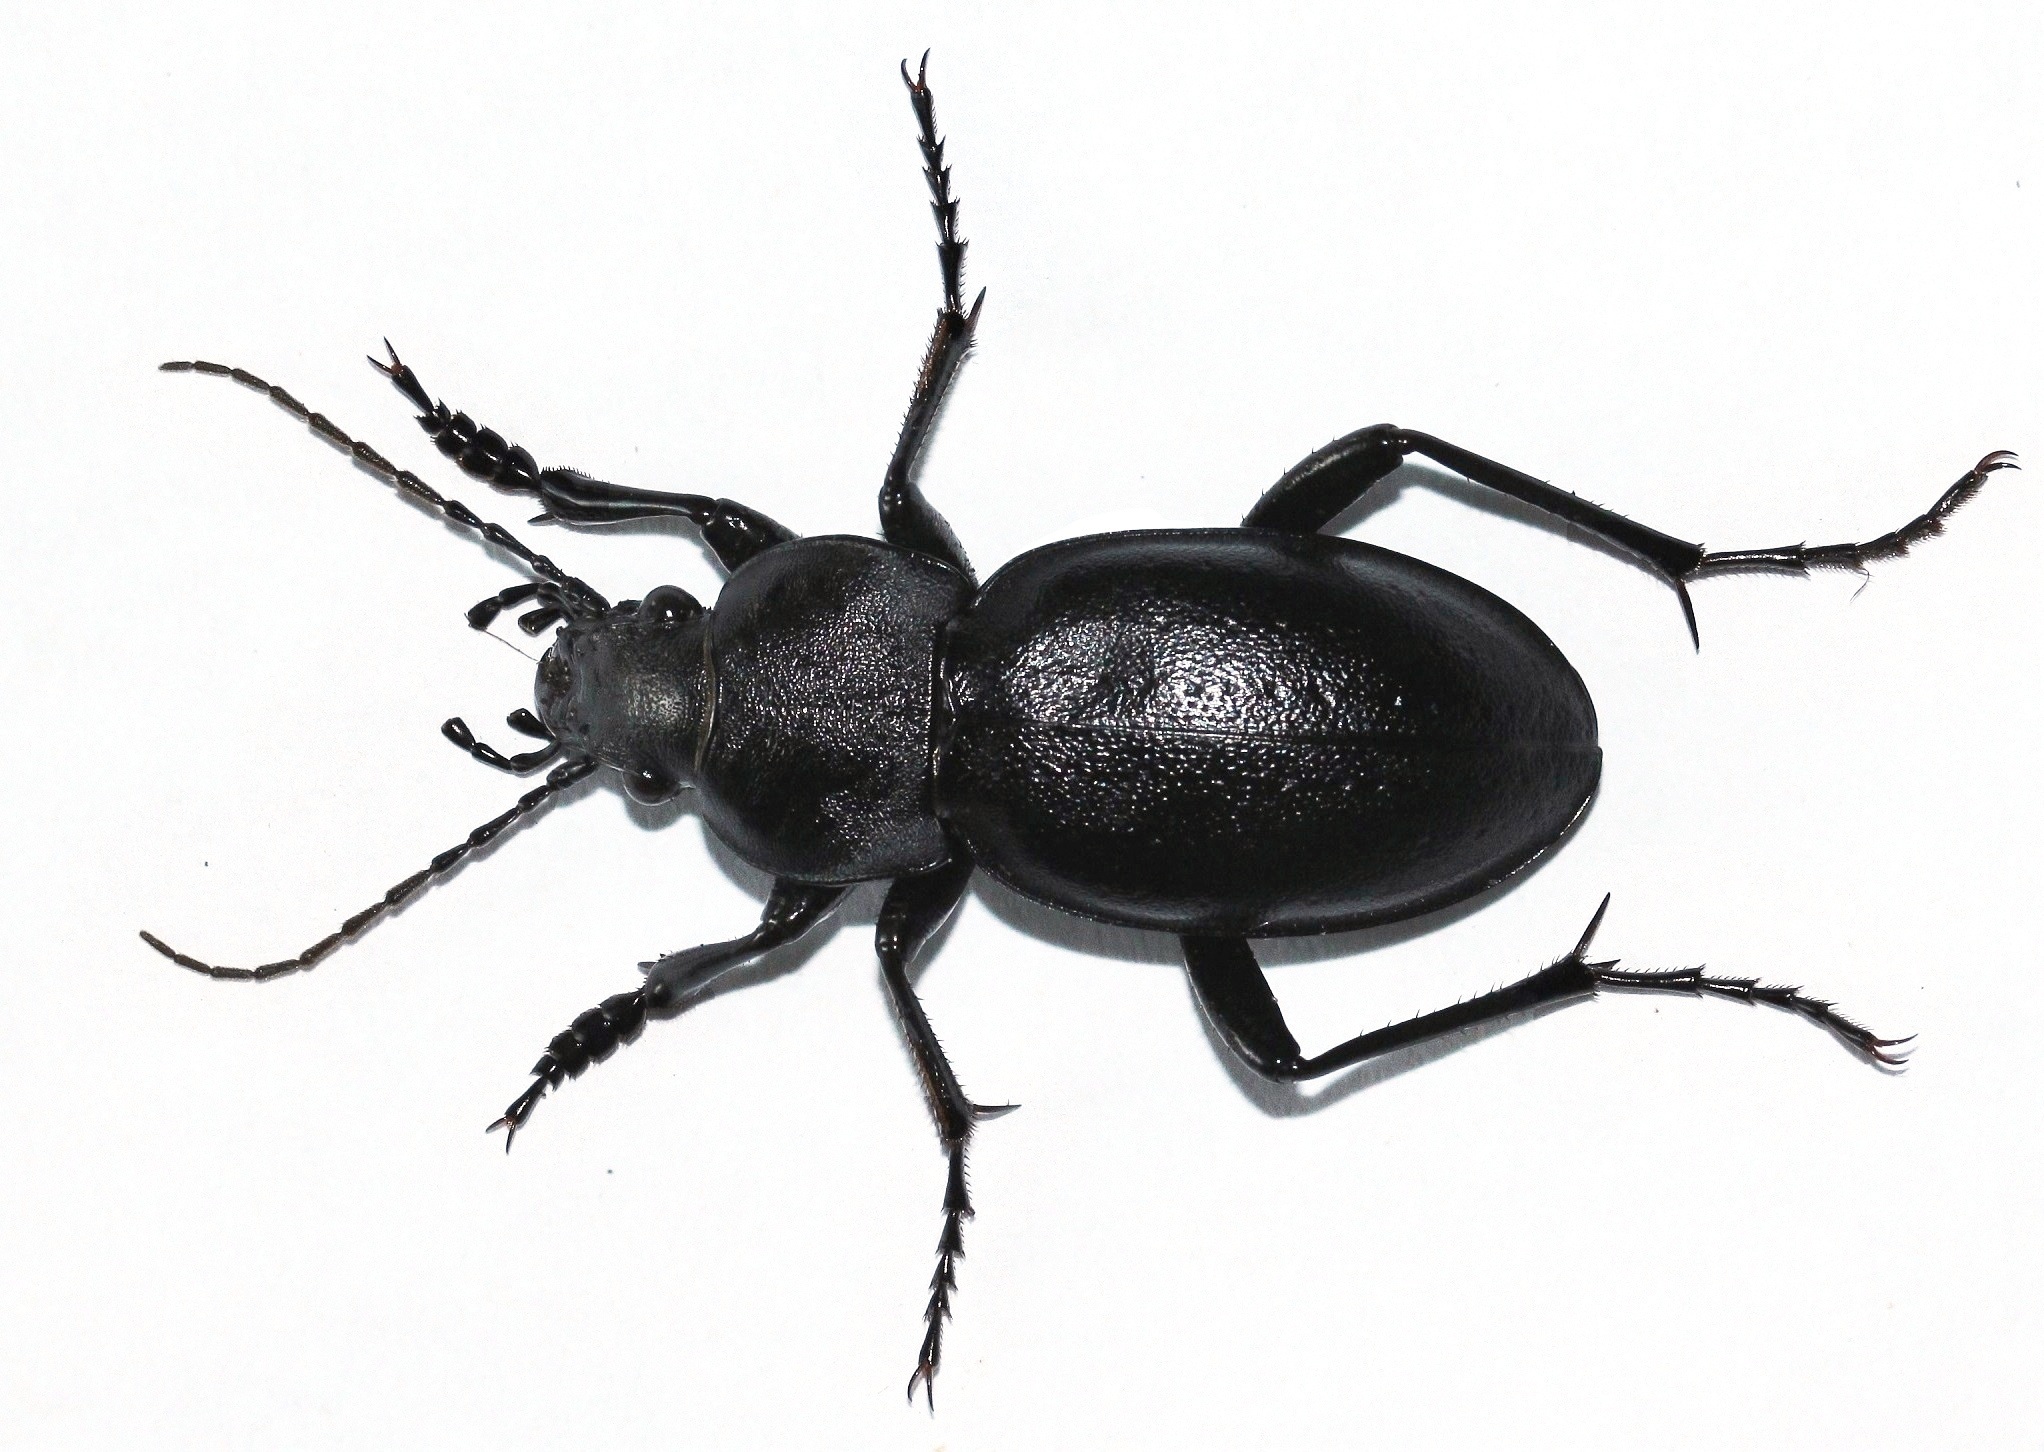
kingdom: Animalia
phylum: Arthropoda
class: Insecta
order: Coleoptera
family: Carabidae
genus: Carabus
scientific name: Carabus hungaricus
